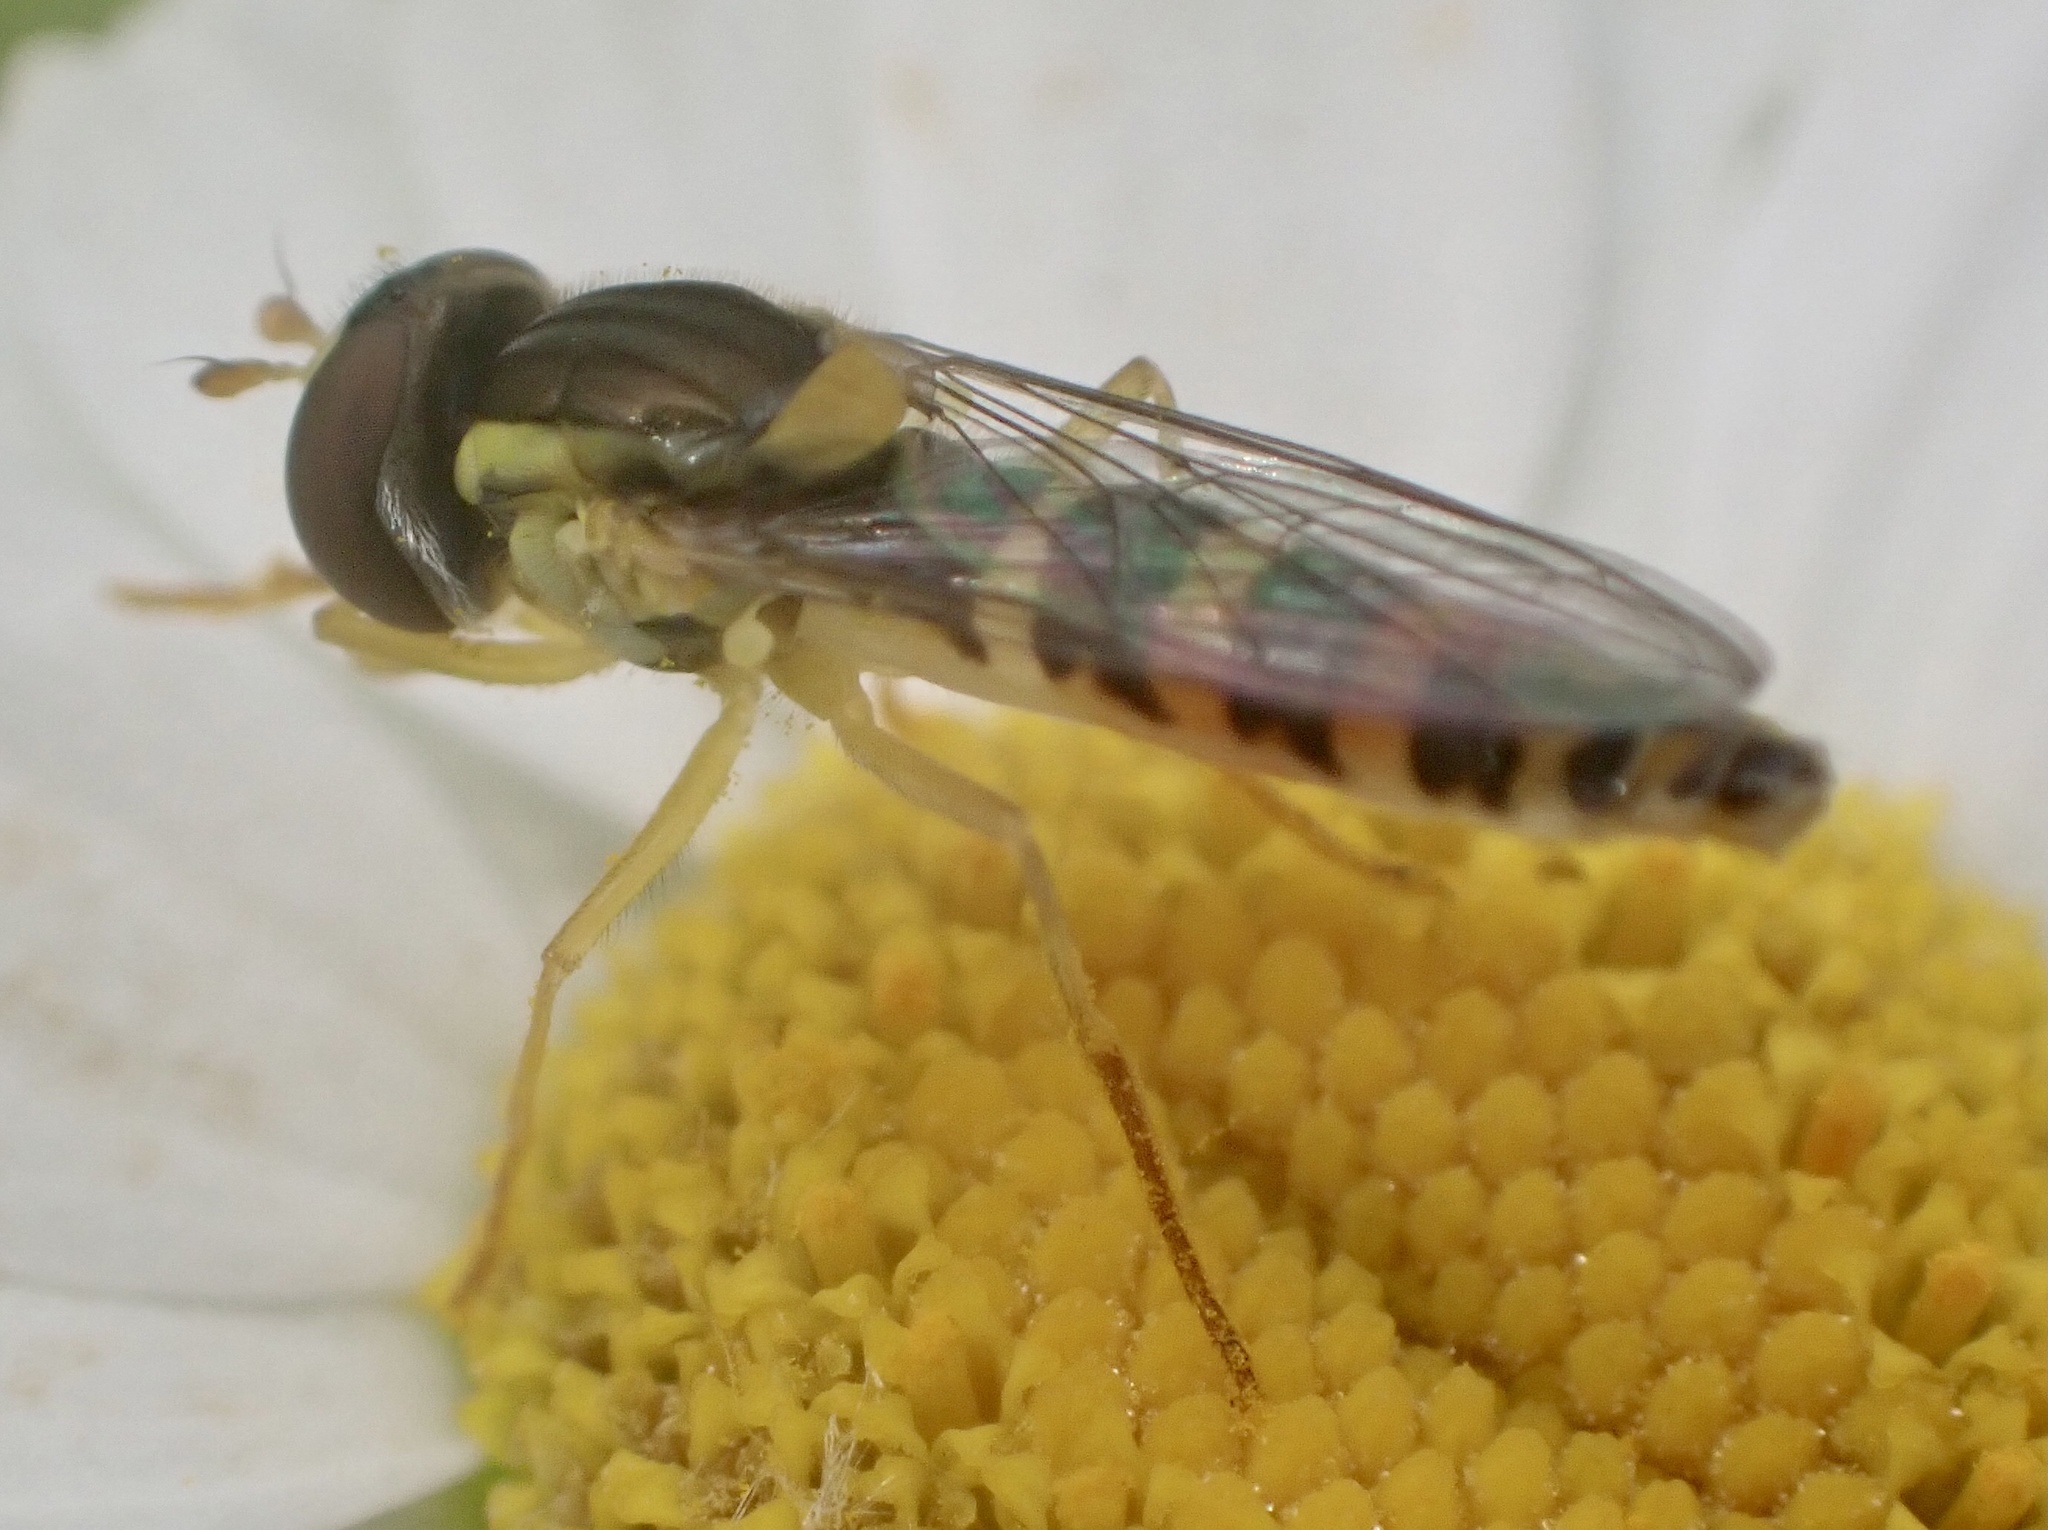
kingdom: Animalia
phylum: Arthropoda
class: Insecta
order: Diptera
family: Syrphidae
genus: Sphaerophoria
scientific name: Sphaerophoria
